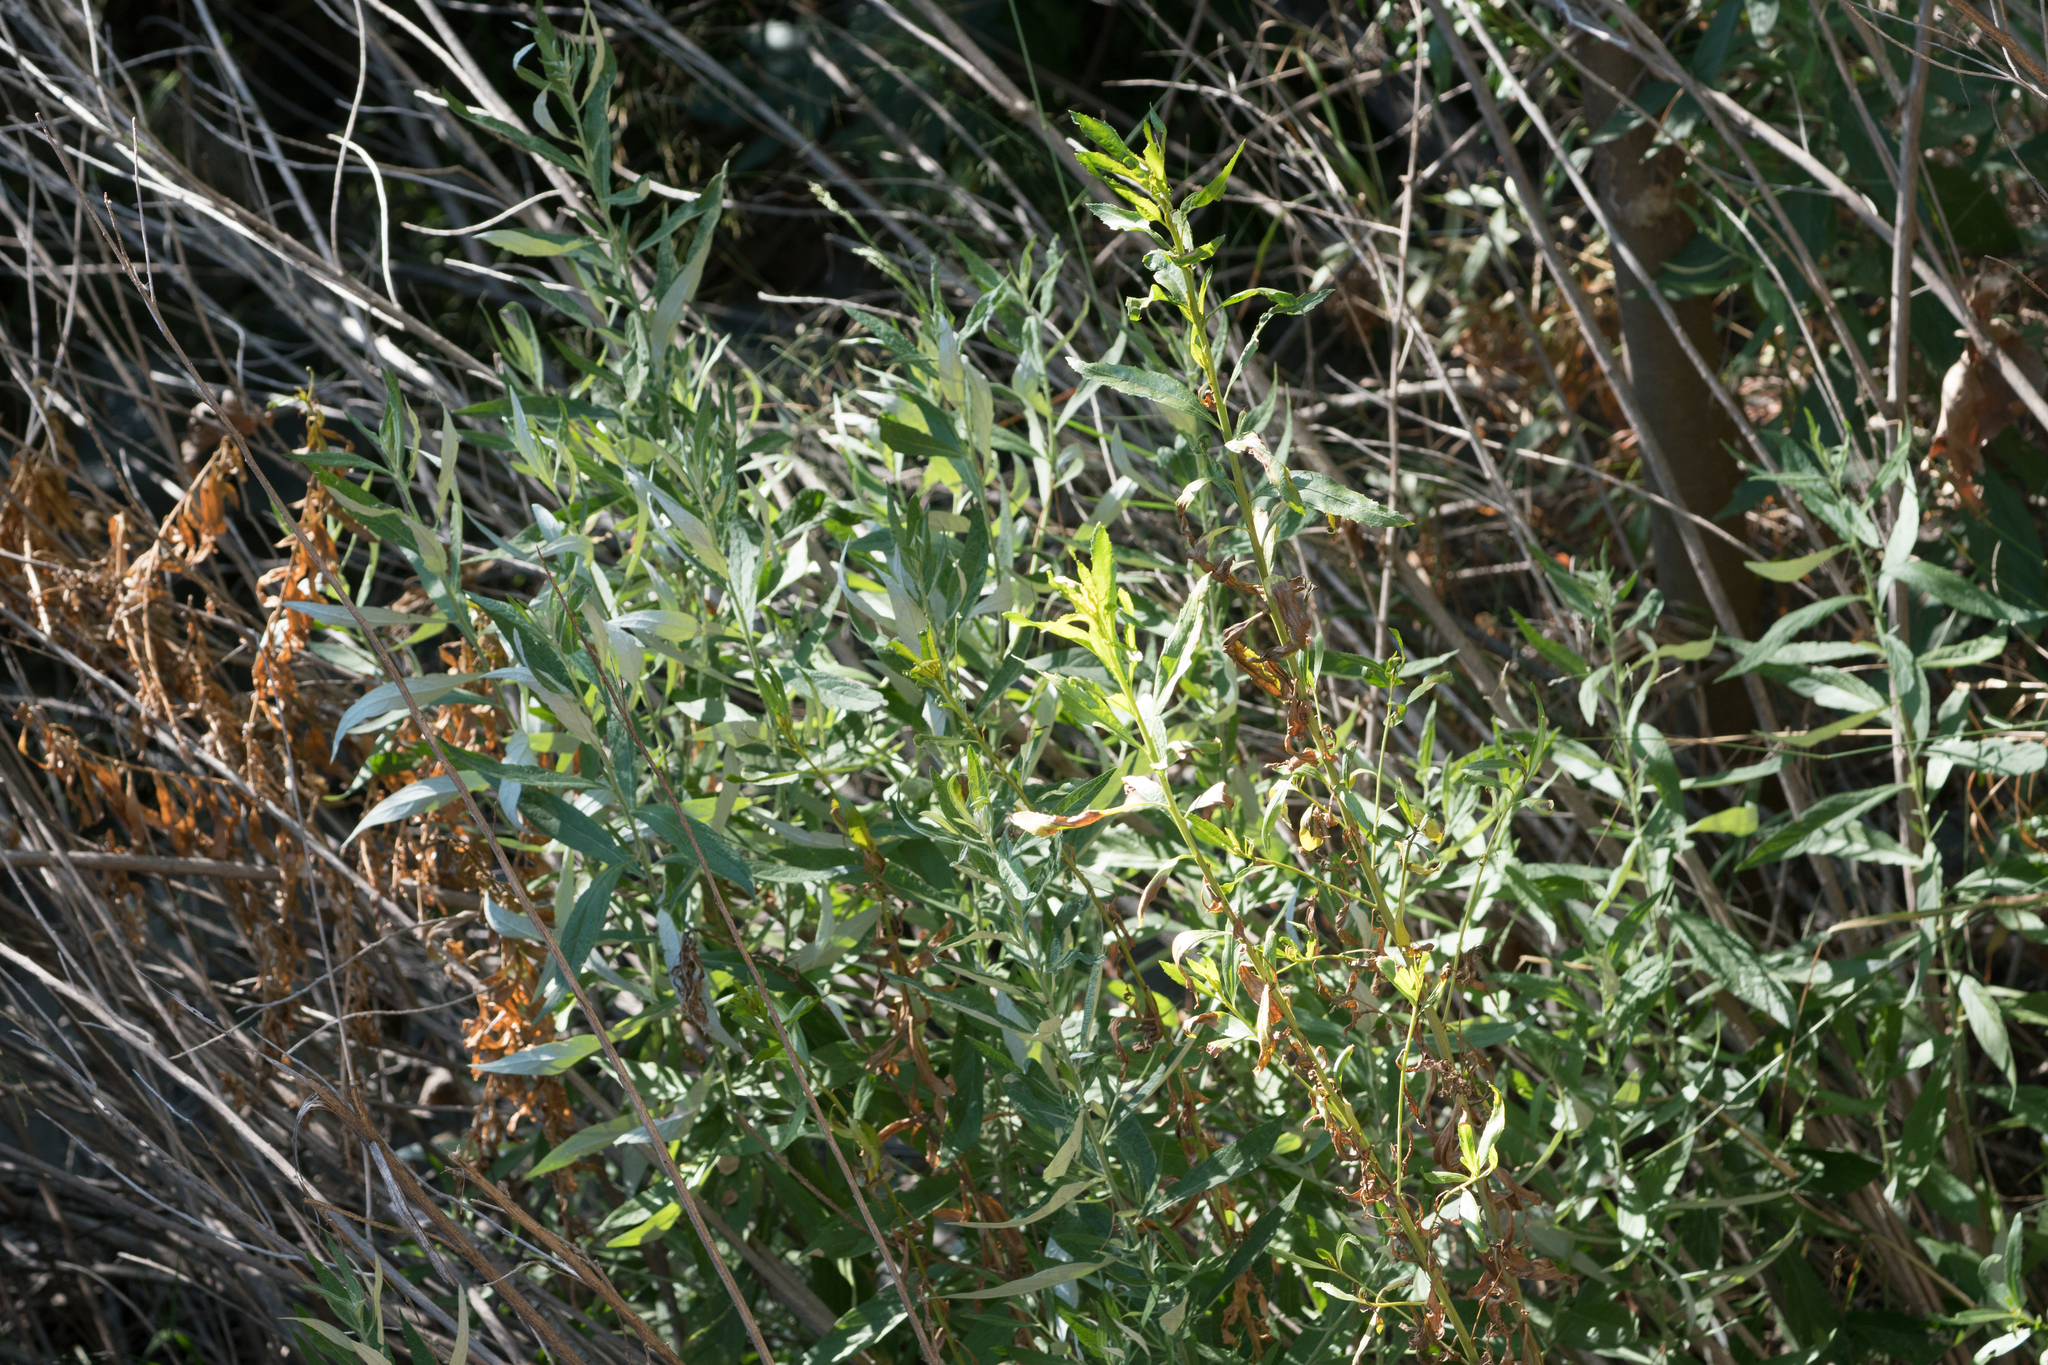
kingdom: Plantae
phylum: Tracheophyta
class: Magnoliopsida
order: Asterales
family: Asteraceae
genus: Artemisia
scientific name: Artemisia douglasiana
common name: Northwest mugwort
